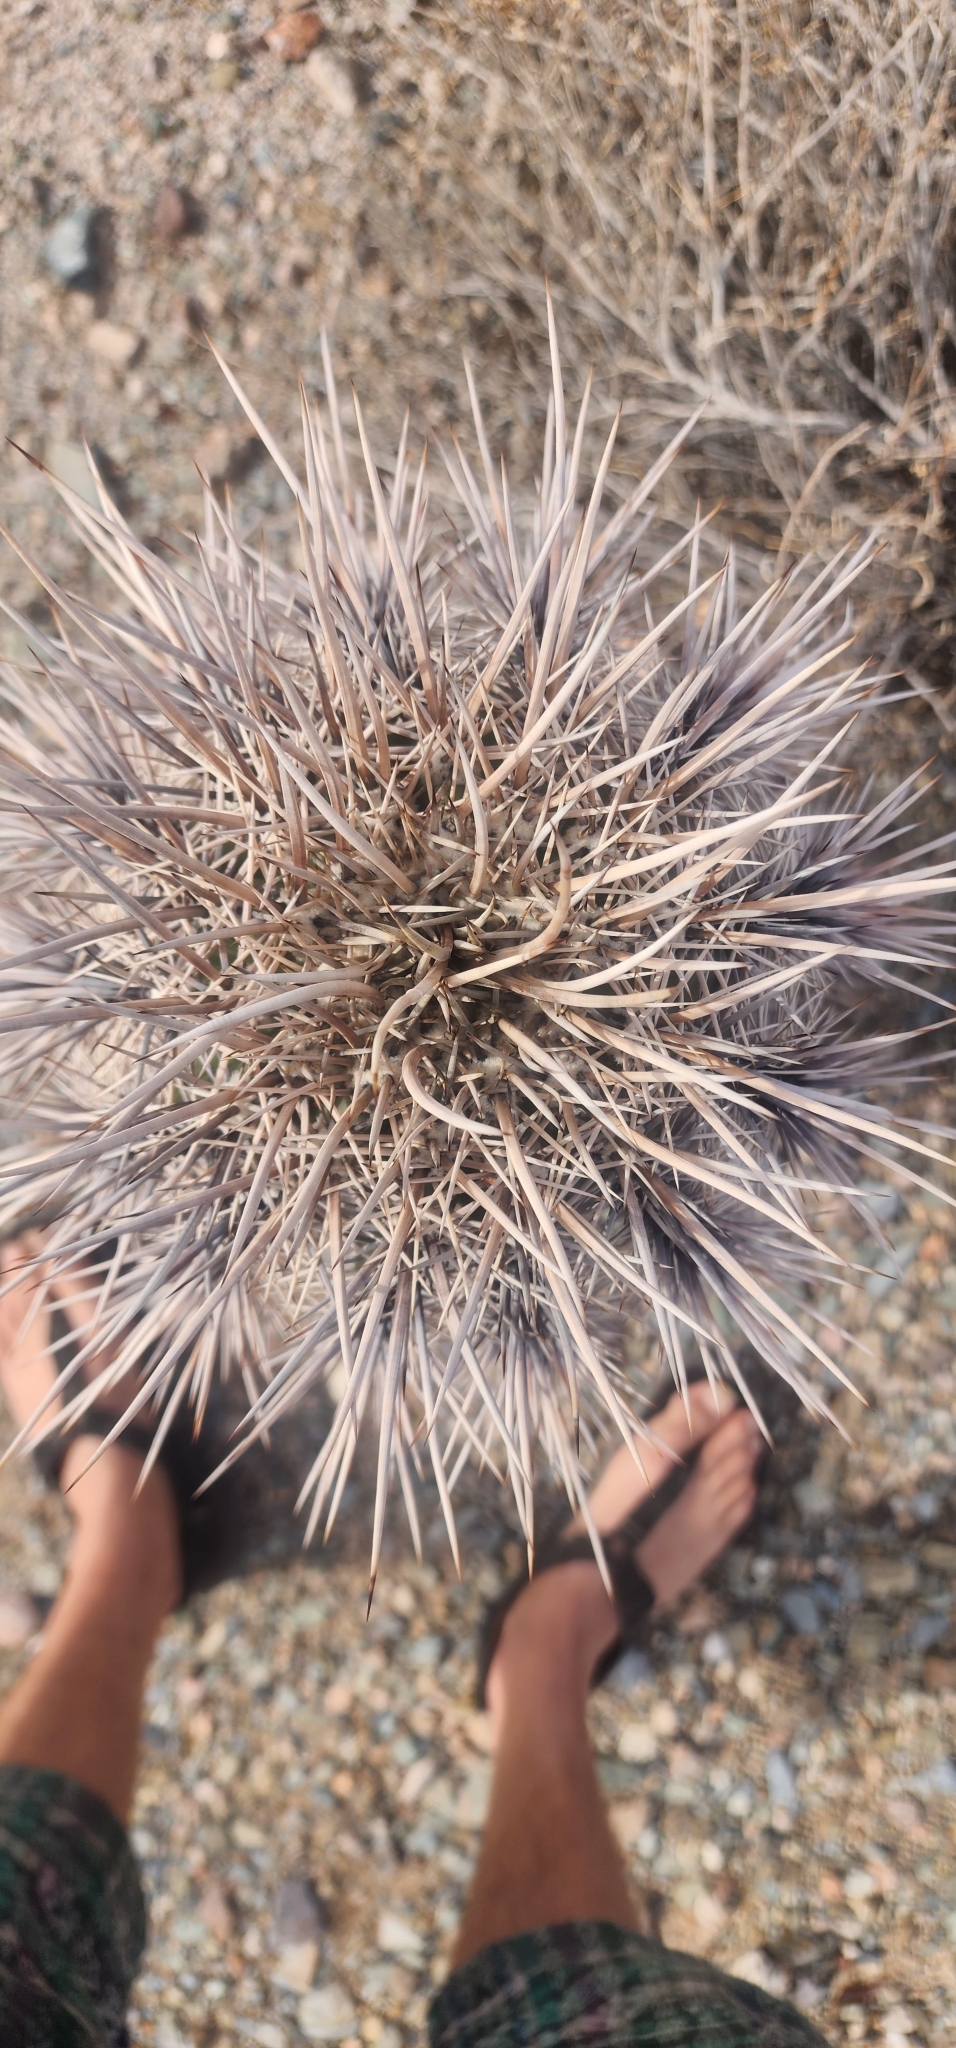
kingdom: Plantae
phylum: Tracheophyta
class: Magnoliopsida
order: Caryophyllales
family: Cactaceae
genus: Carnegiea
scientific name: Carnegiea gigantea
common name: Saguaro
